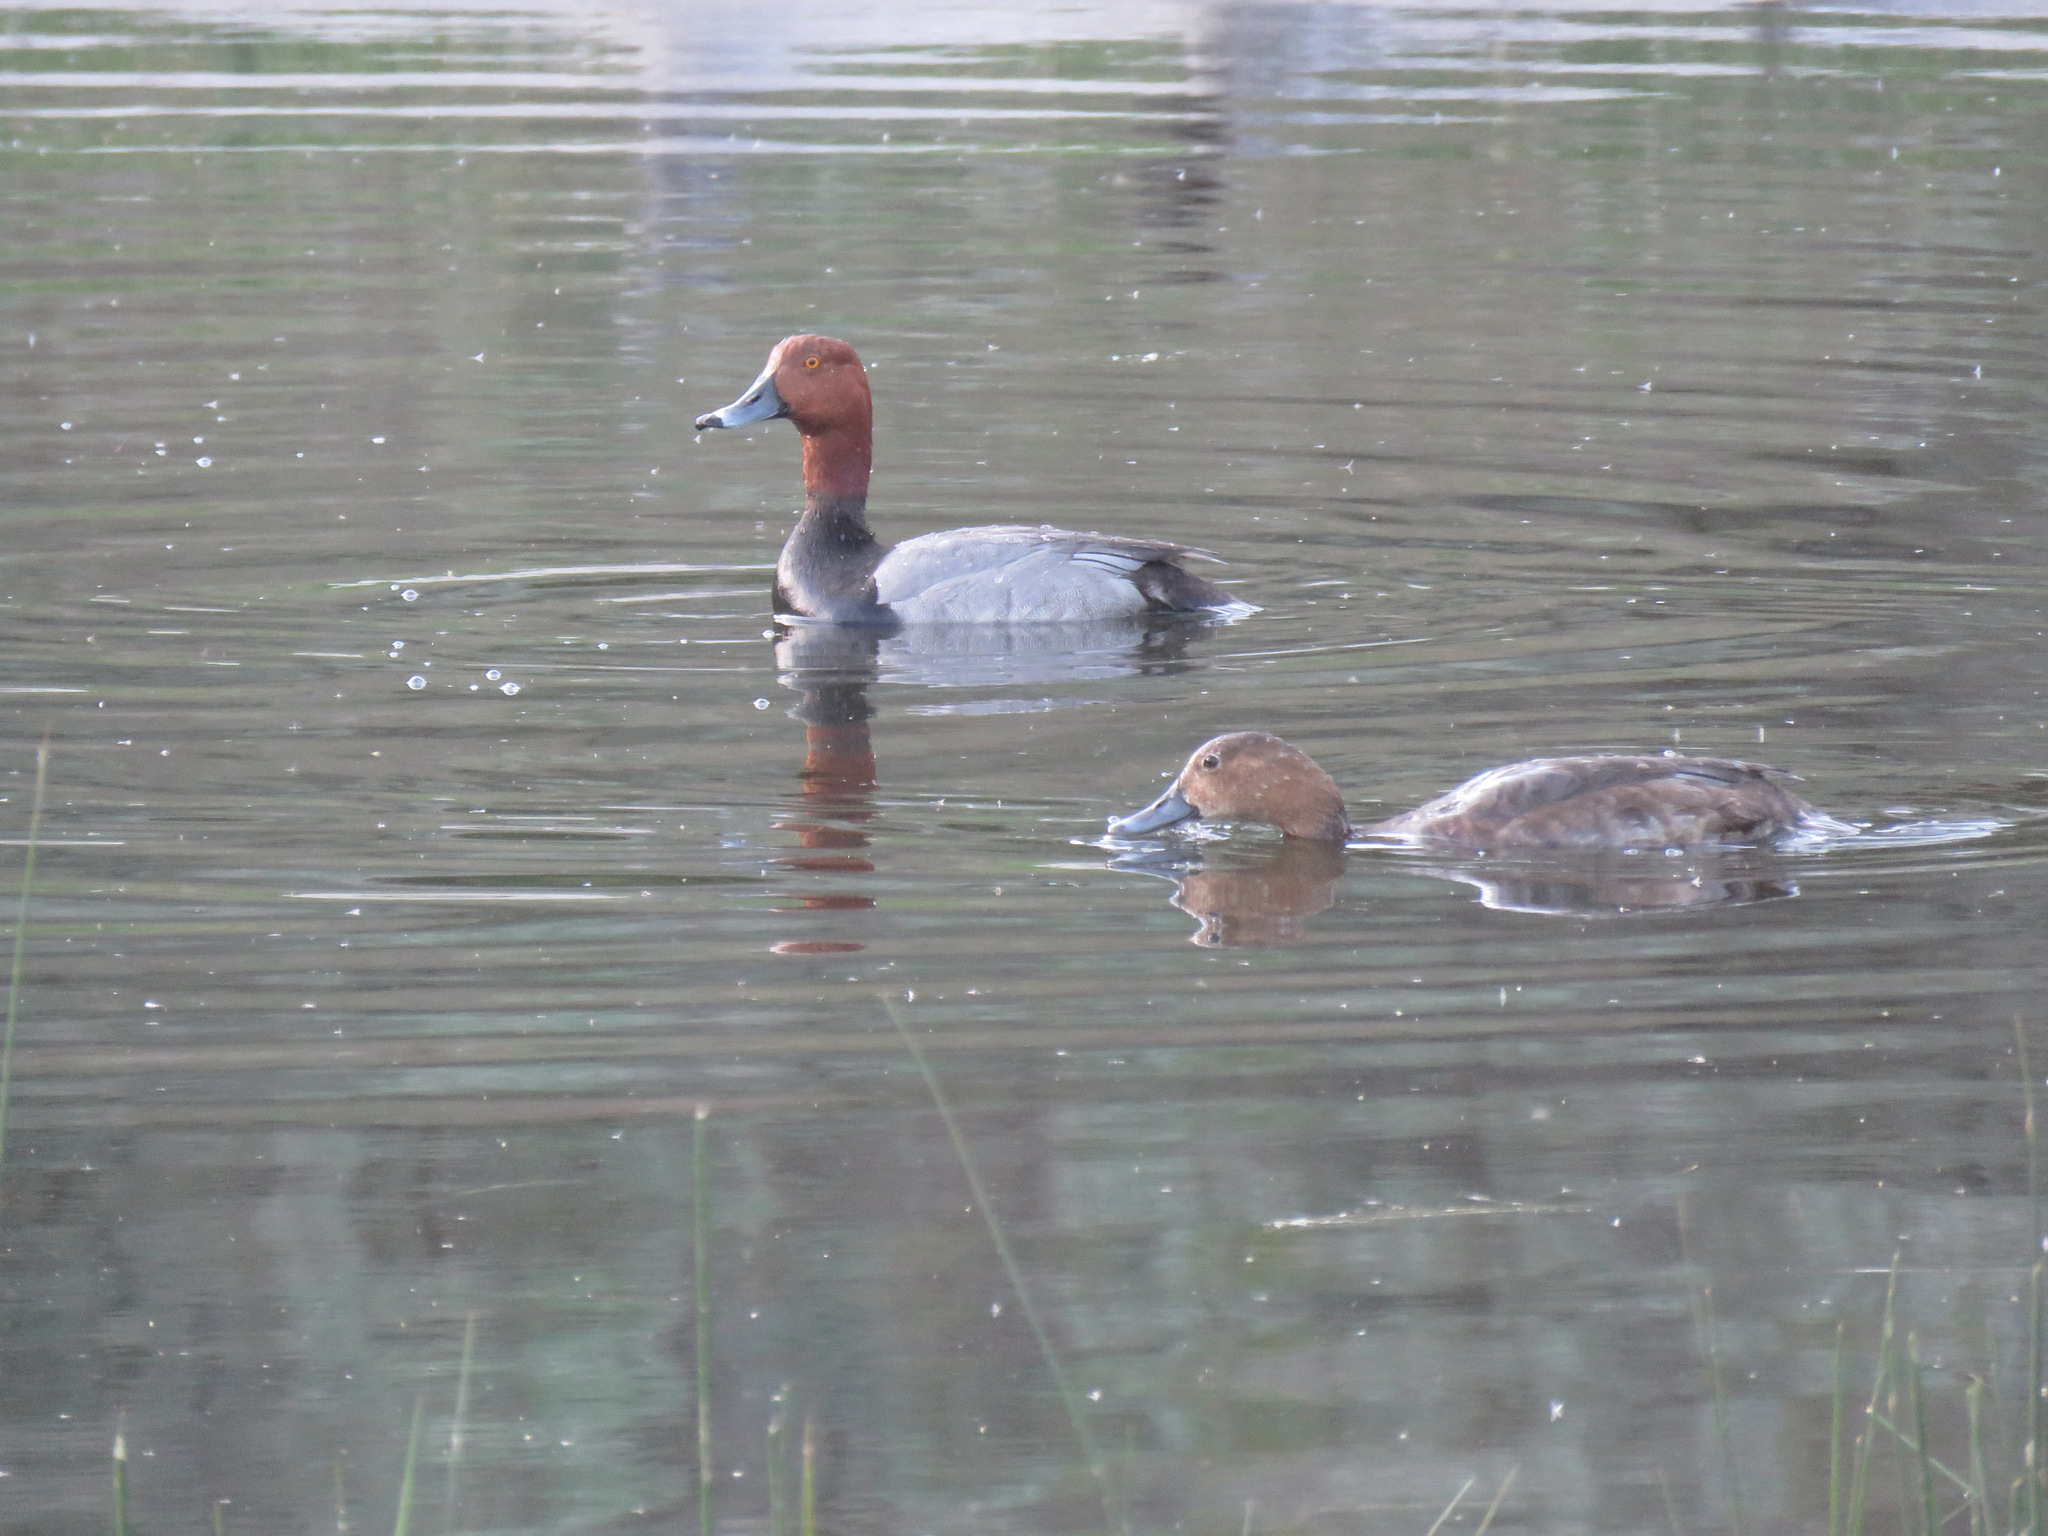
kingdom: Animalia
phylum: Chordata
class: Aves
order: Anseriformes
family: Anatidae
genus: Aythya
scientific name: Aythya americana
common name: Redhead
